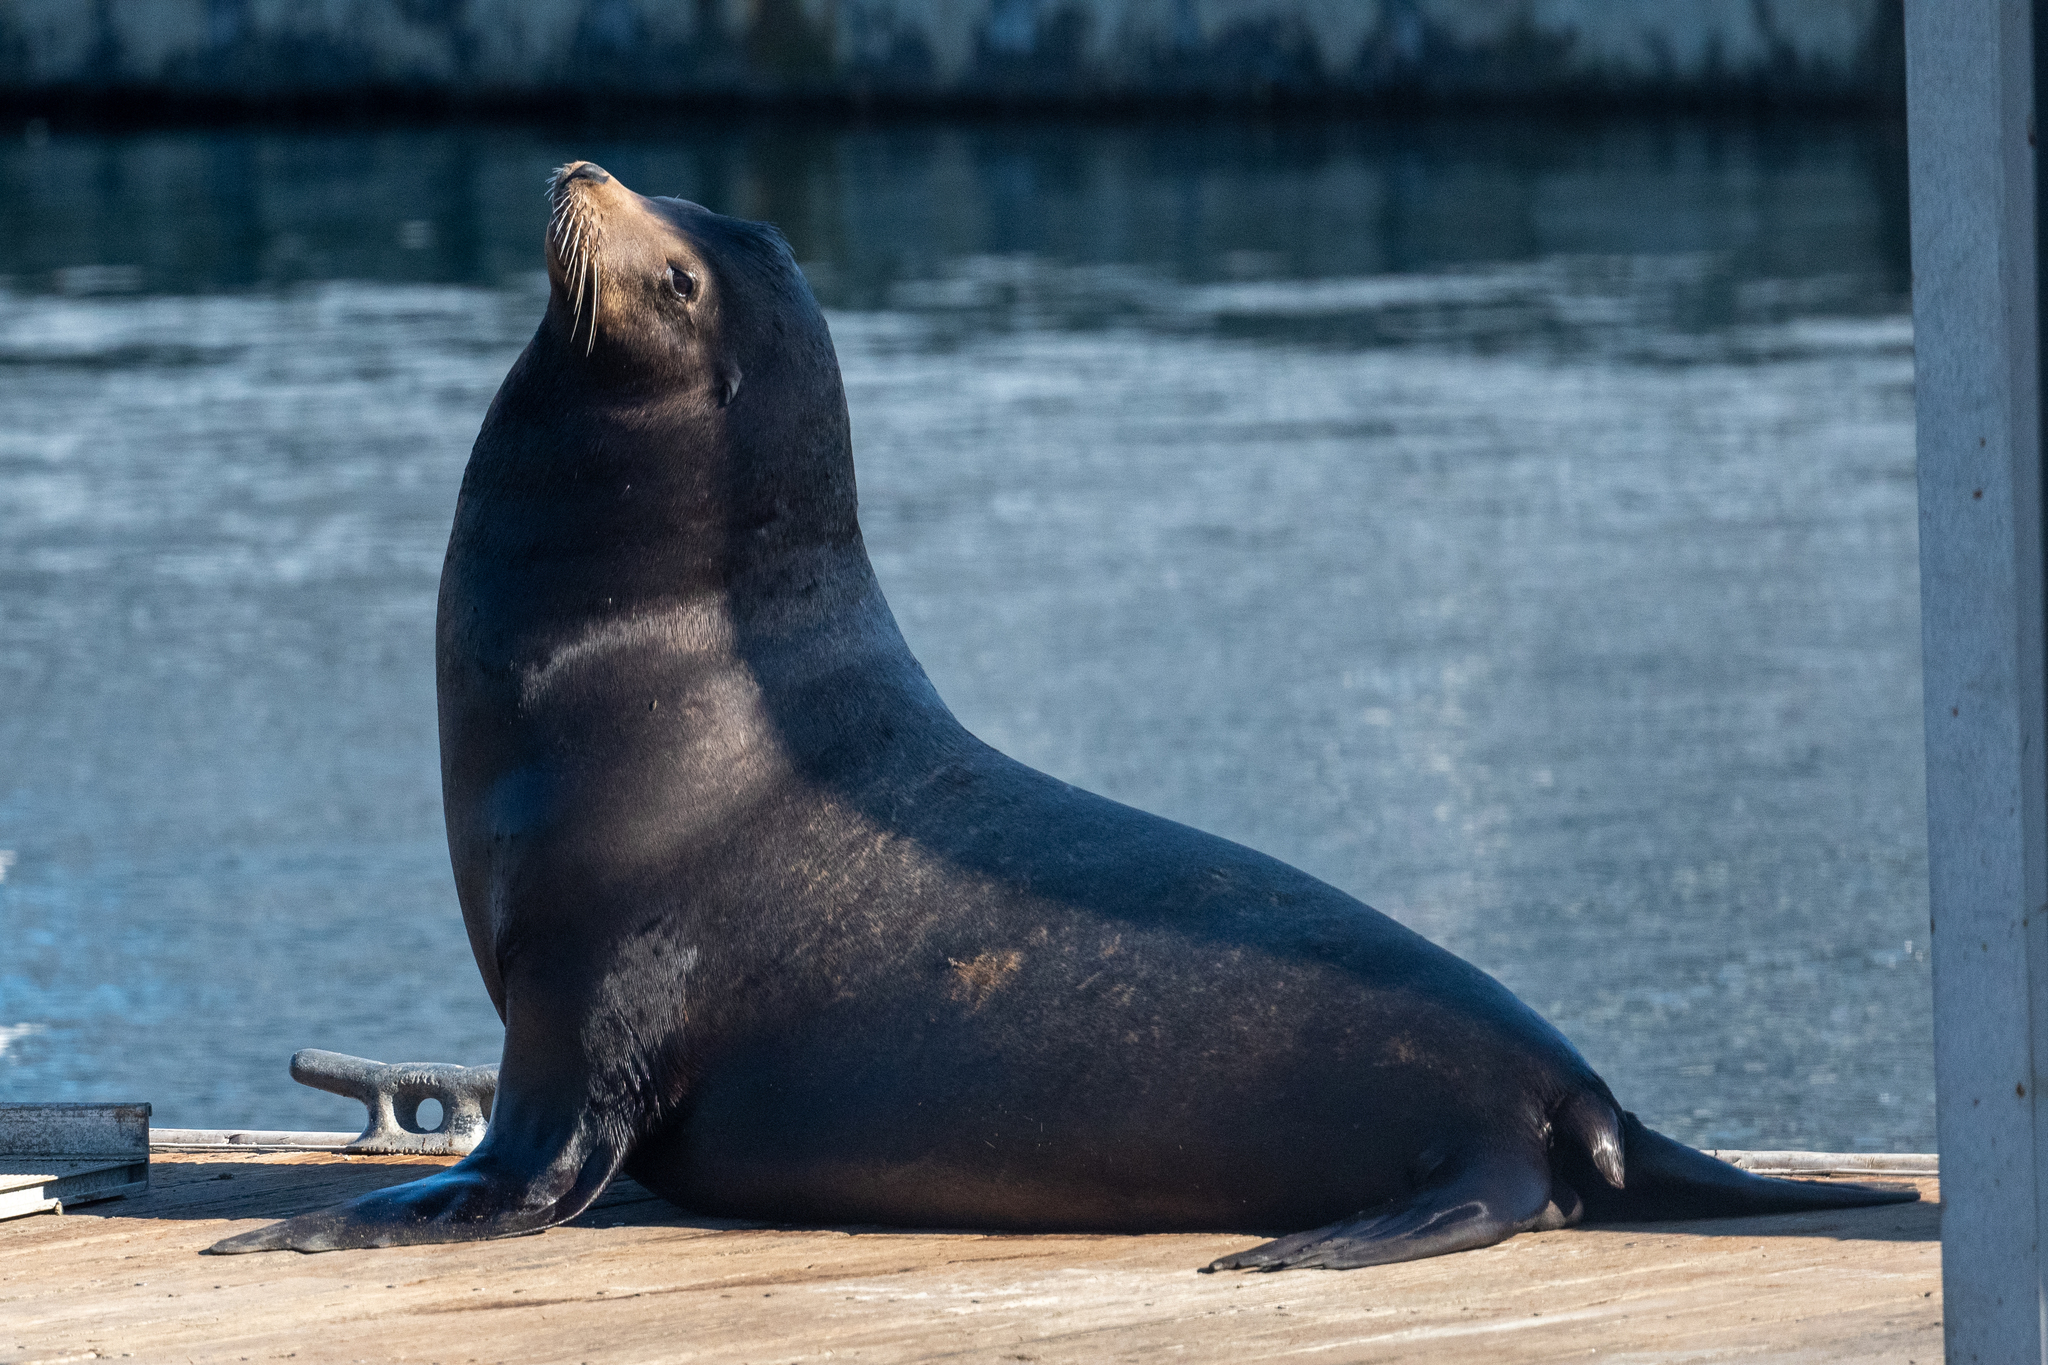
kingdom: Animalia
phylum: Chordata
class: Mammalia
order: Carnivora
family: Otariidae
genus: Zalophus
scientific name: Zalophus californianus
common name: California sea lion
